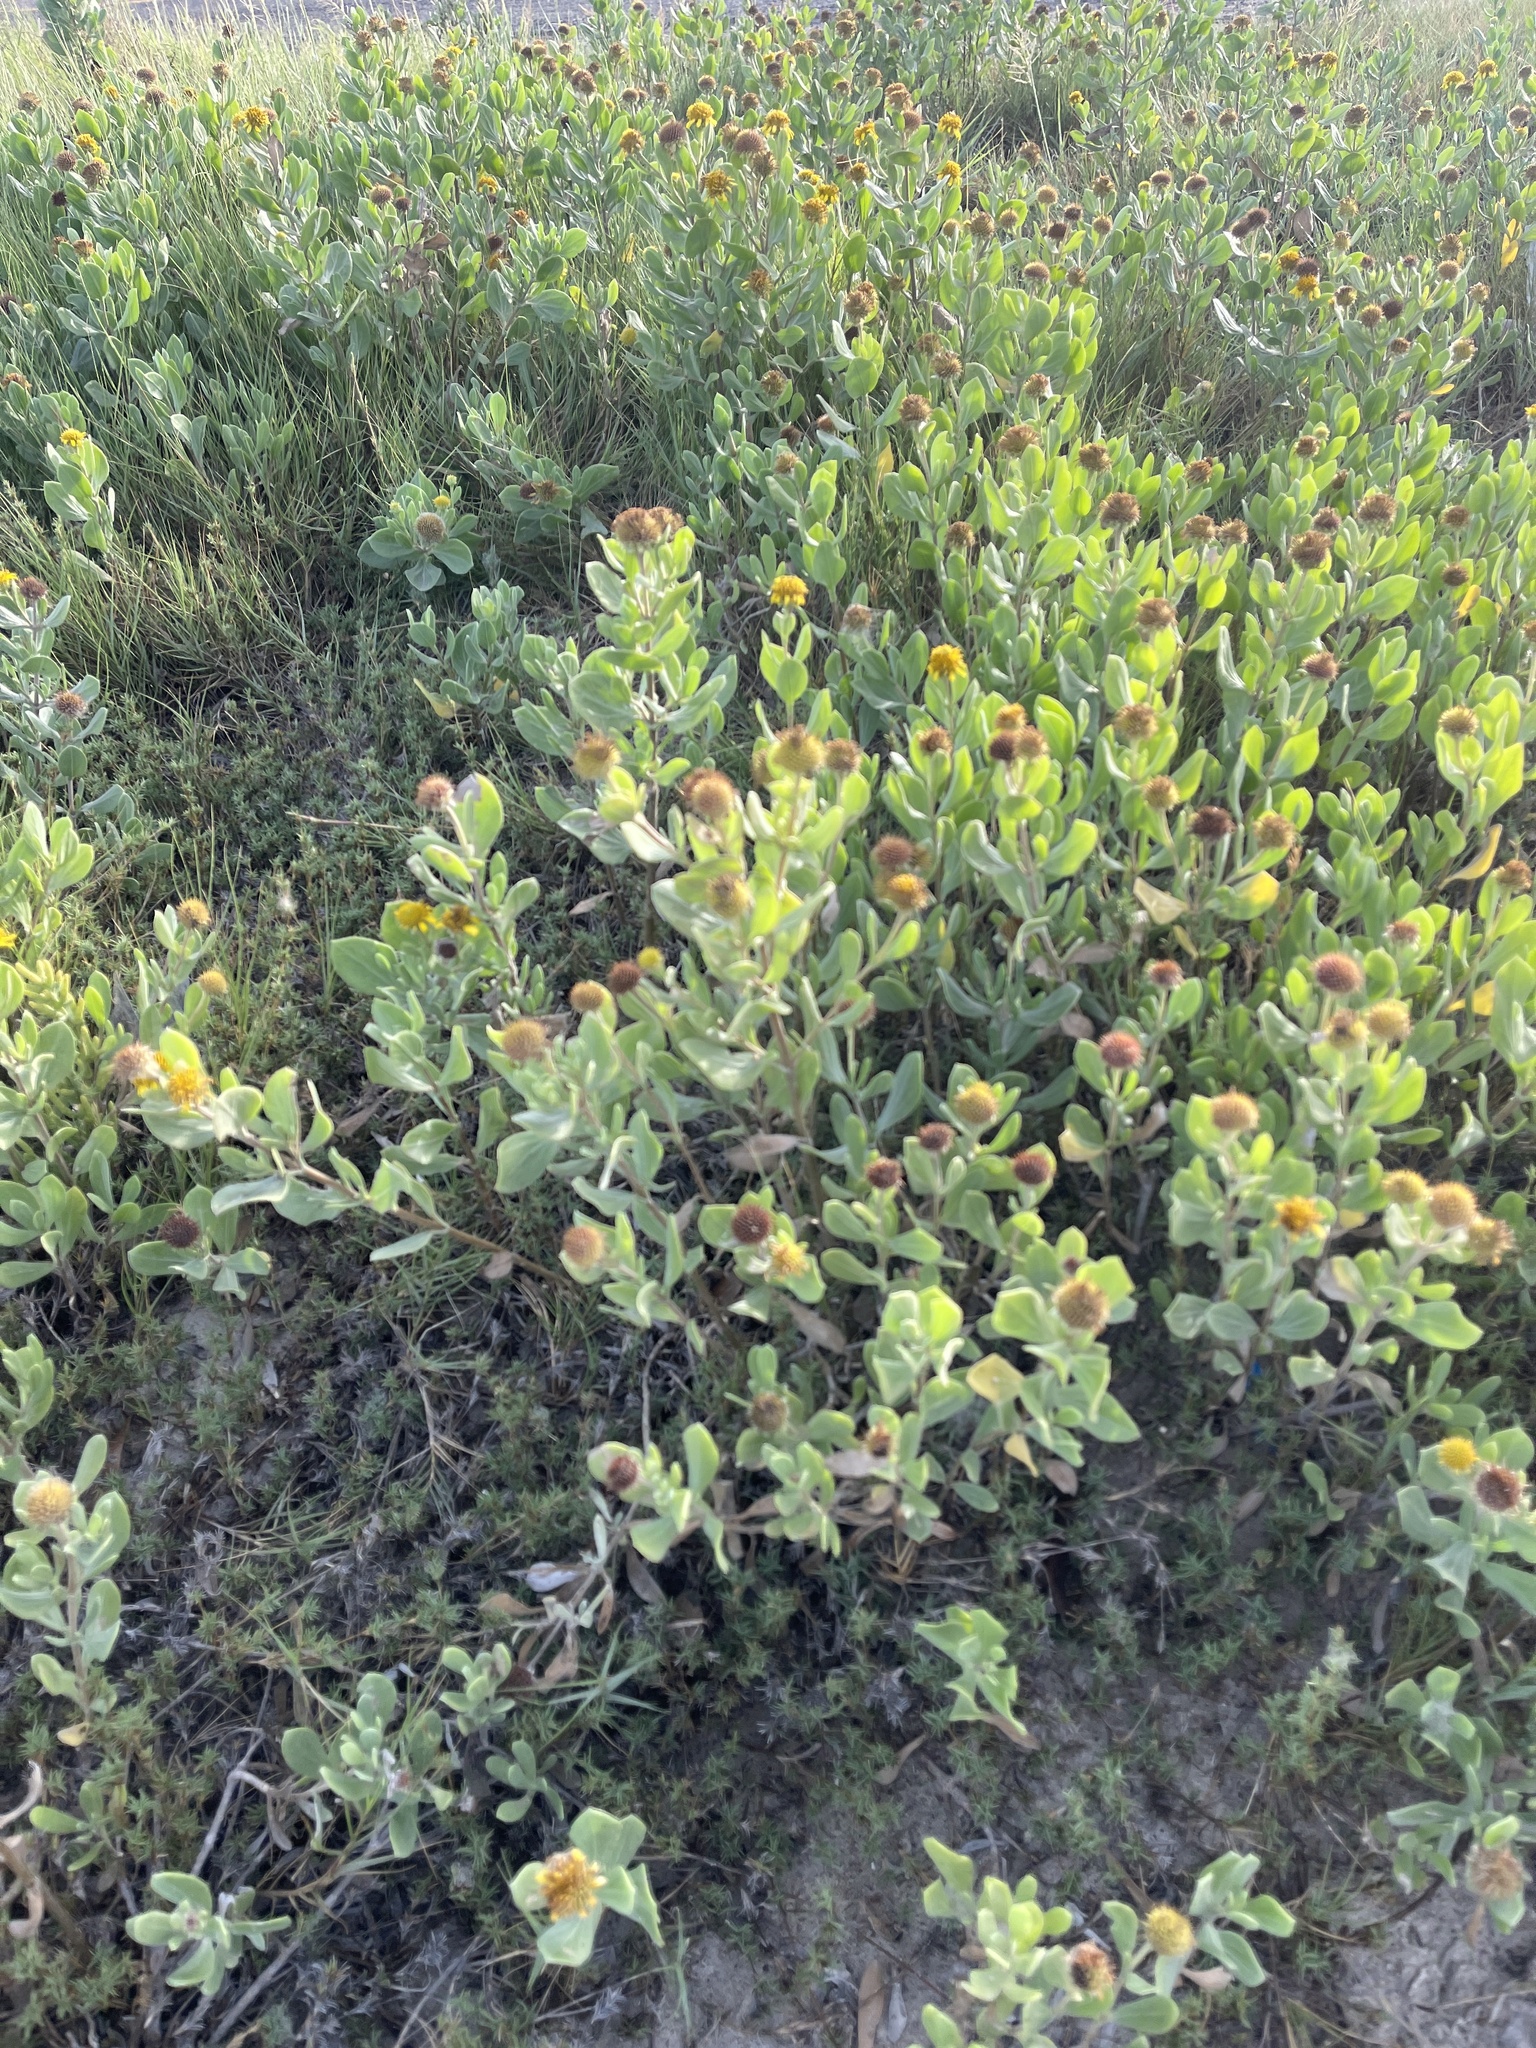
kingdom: Plantae
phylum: Tracheophyta
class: Magnoliopsida
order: Asterales
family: Asteraceae
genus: Borrichia
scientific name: Borrichia frutescens
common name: Sea oxeye
